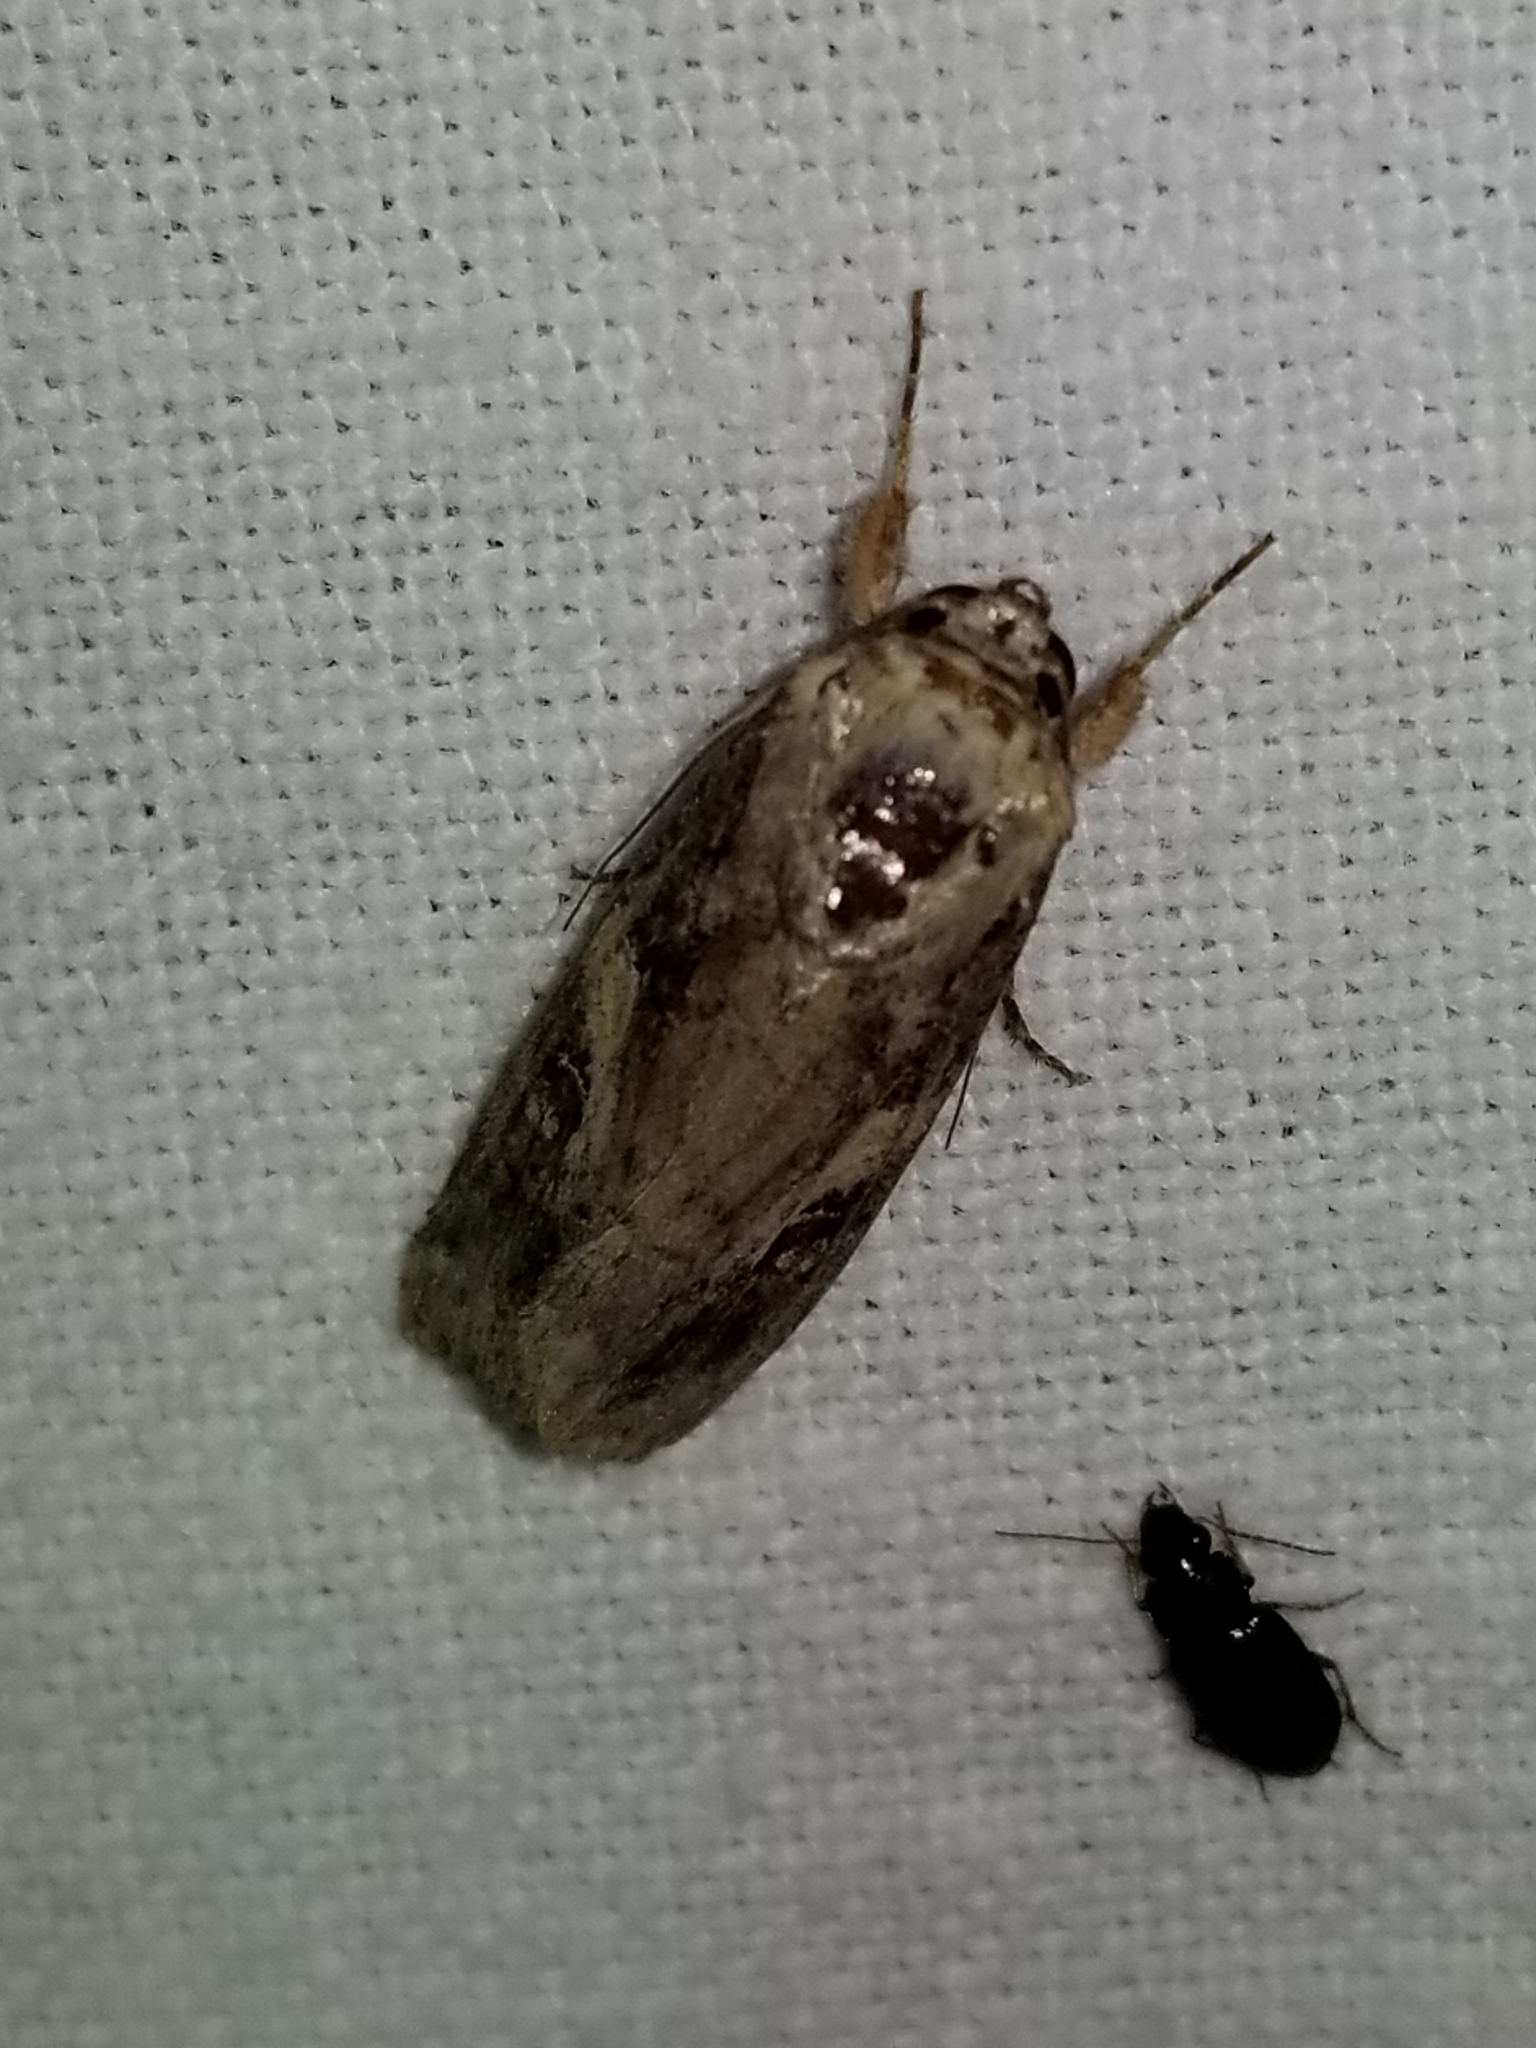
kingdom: Animalia
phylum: Arthropoda
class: Insecta
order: Lepidoptera
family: Noctuidae
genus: Spodoptera
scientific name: Spodoptera frugiperda
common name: Fall armyworm
